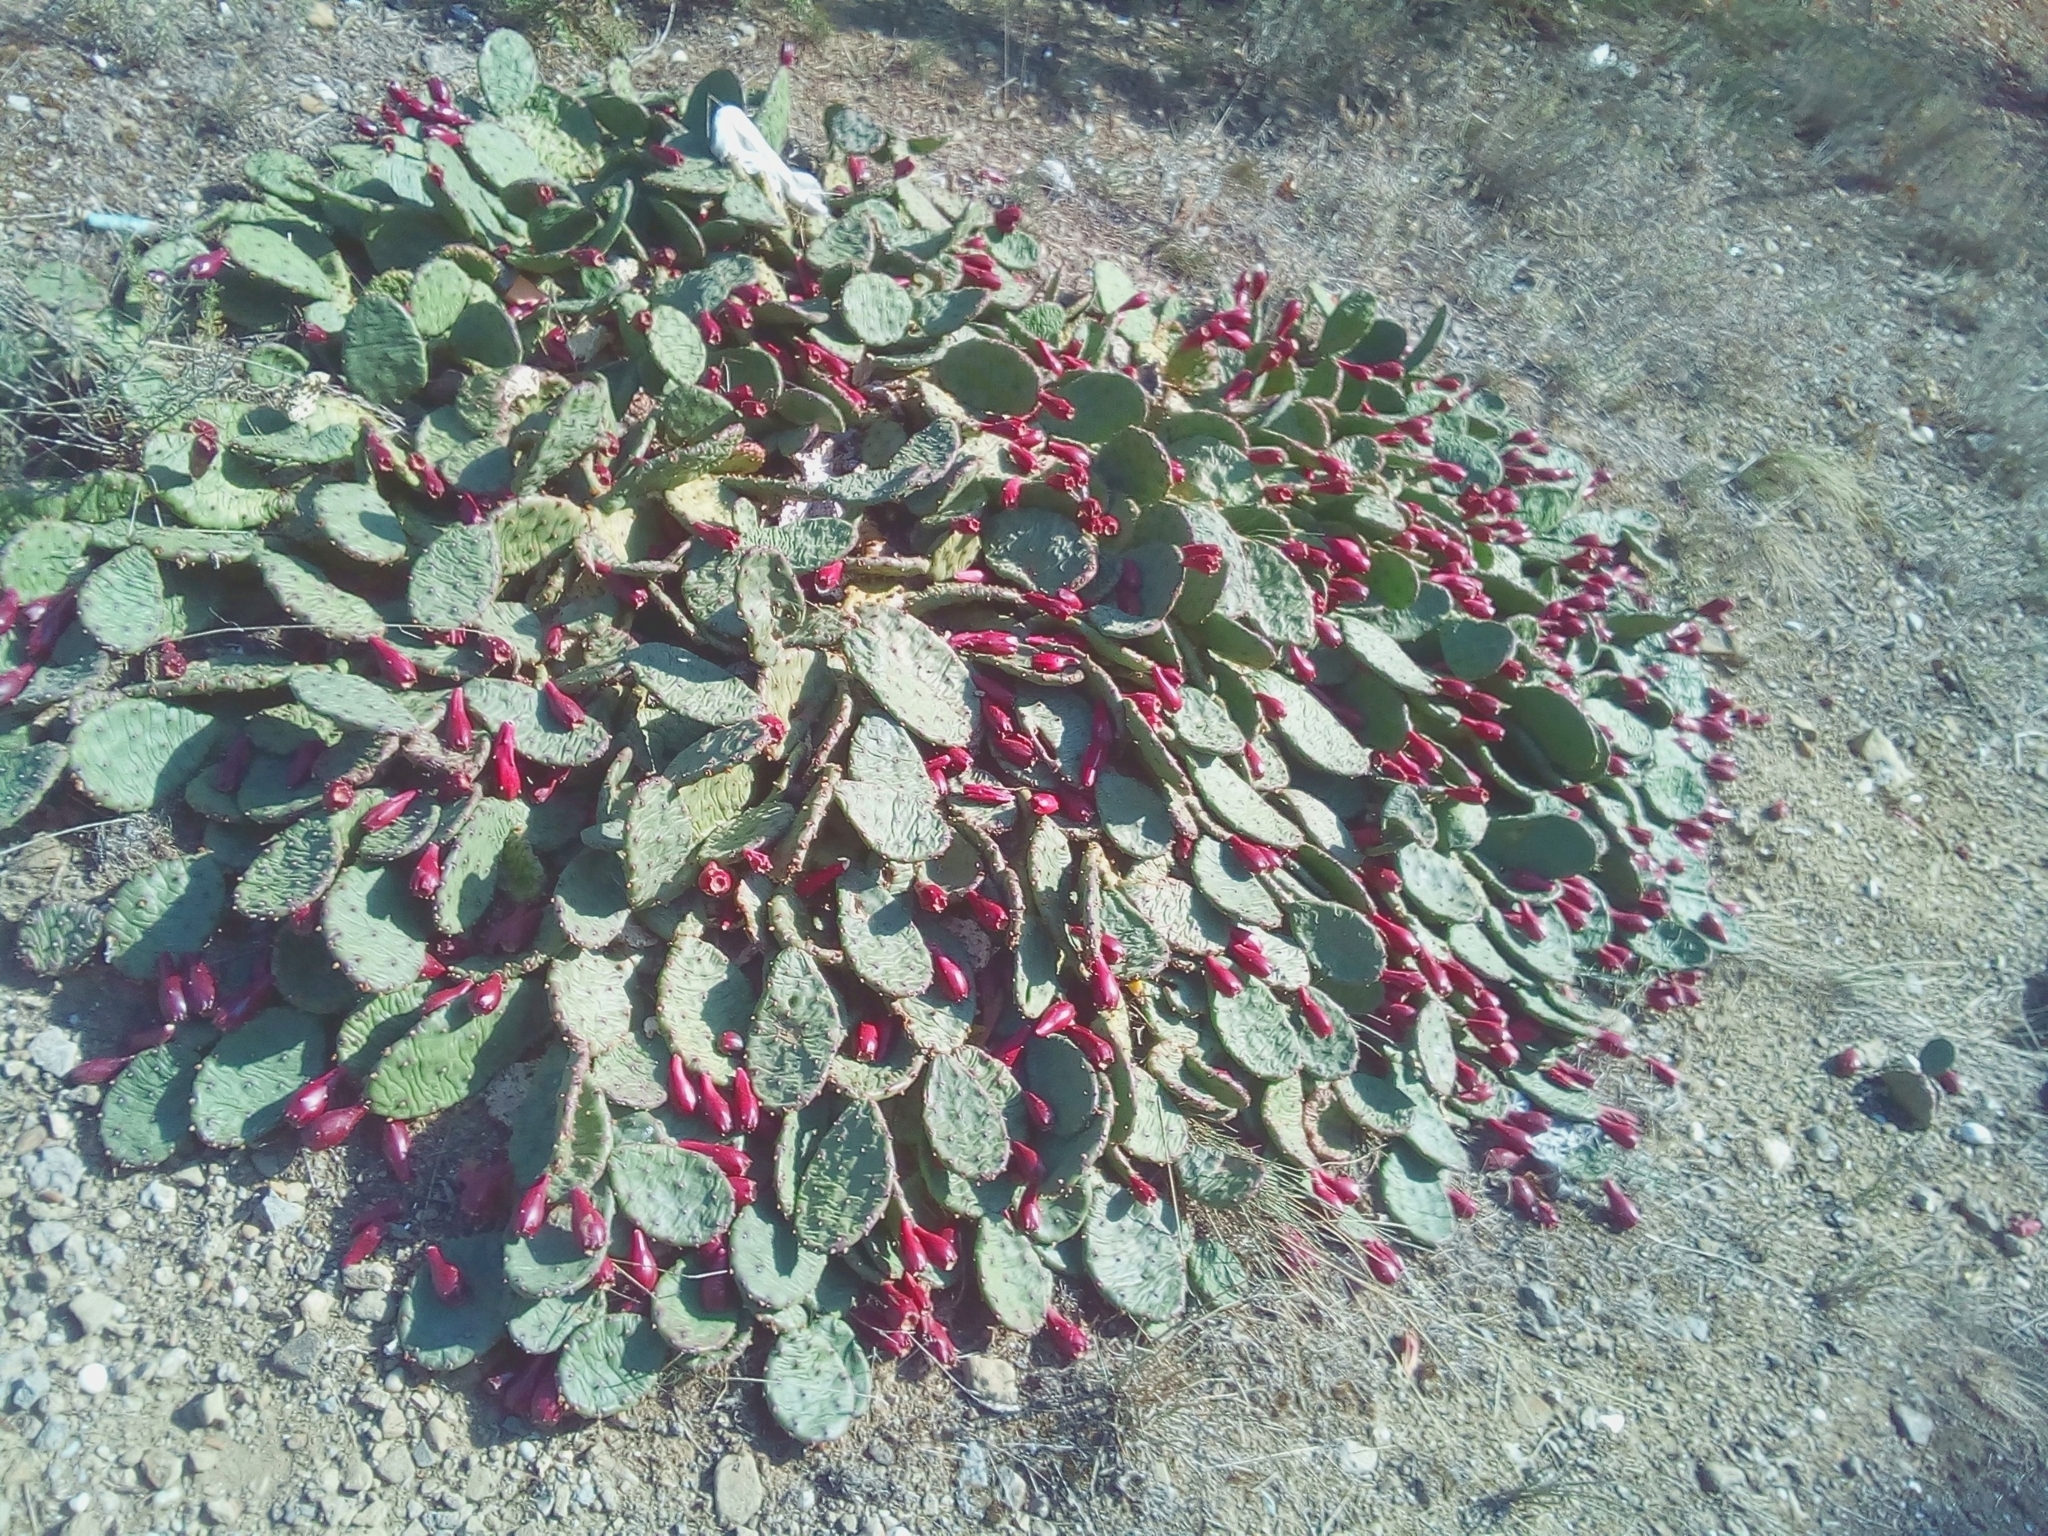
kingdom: Plantae
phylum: Tracheophyta
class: Magnoliopsida
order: Caryophyllales
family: Cactaceae
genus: Opuntia
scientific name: Opuntia humifusa
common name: Eastern prickly-pear
